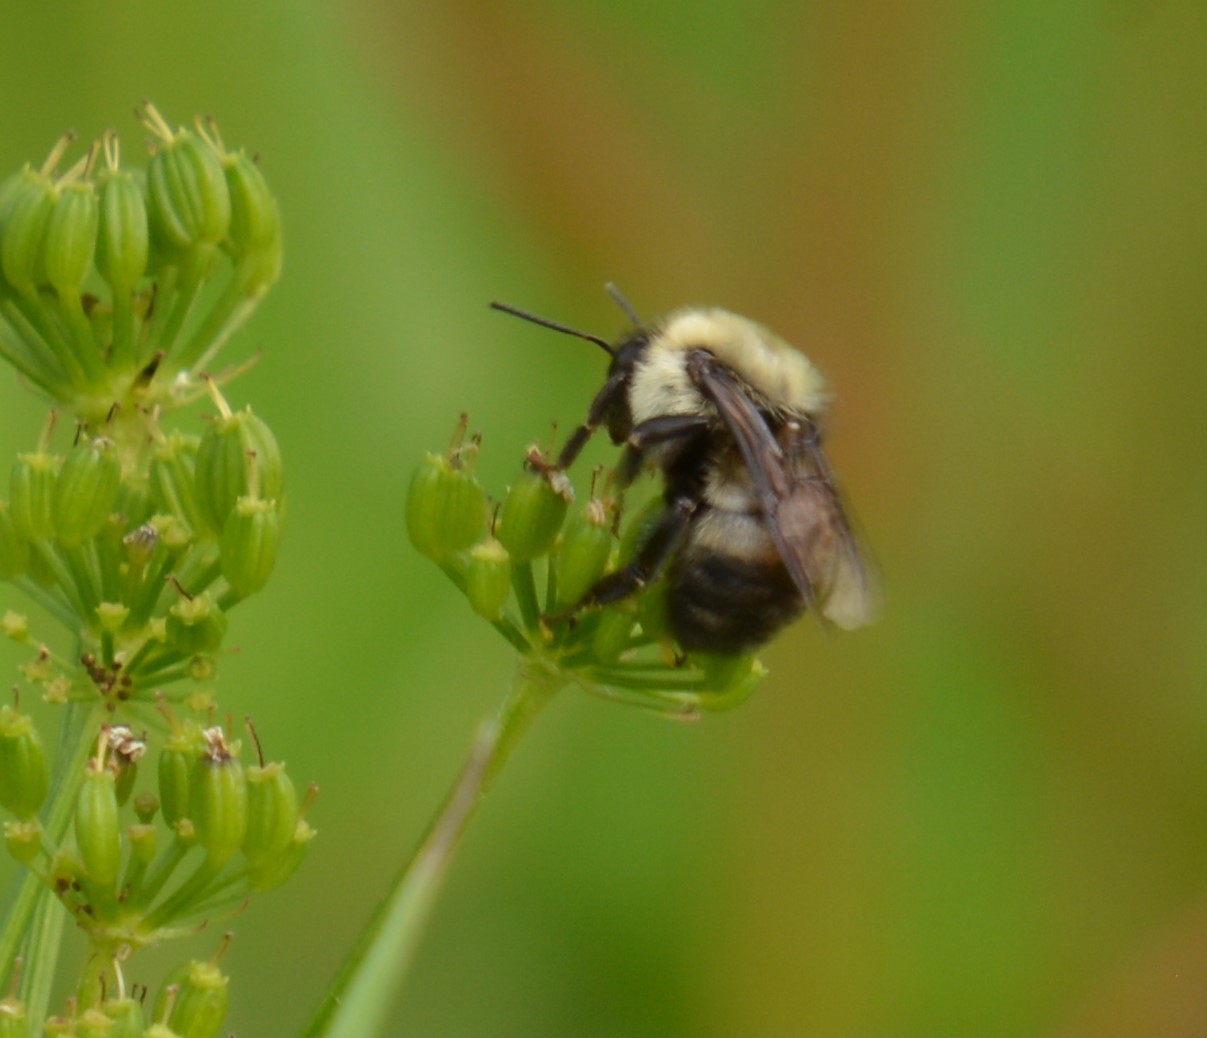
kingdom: Animalia
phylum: Arthropoda
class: Insecta
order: Hymenoptera
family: Apidae
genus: Bombus
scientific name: Bombus griseocollis
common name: Brown-belted bumble bee
